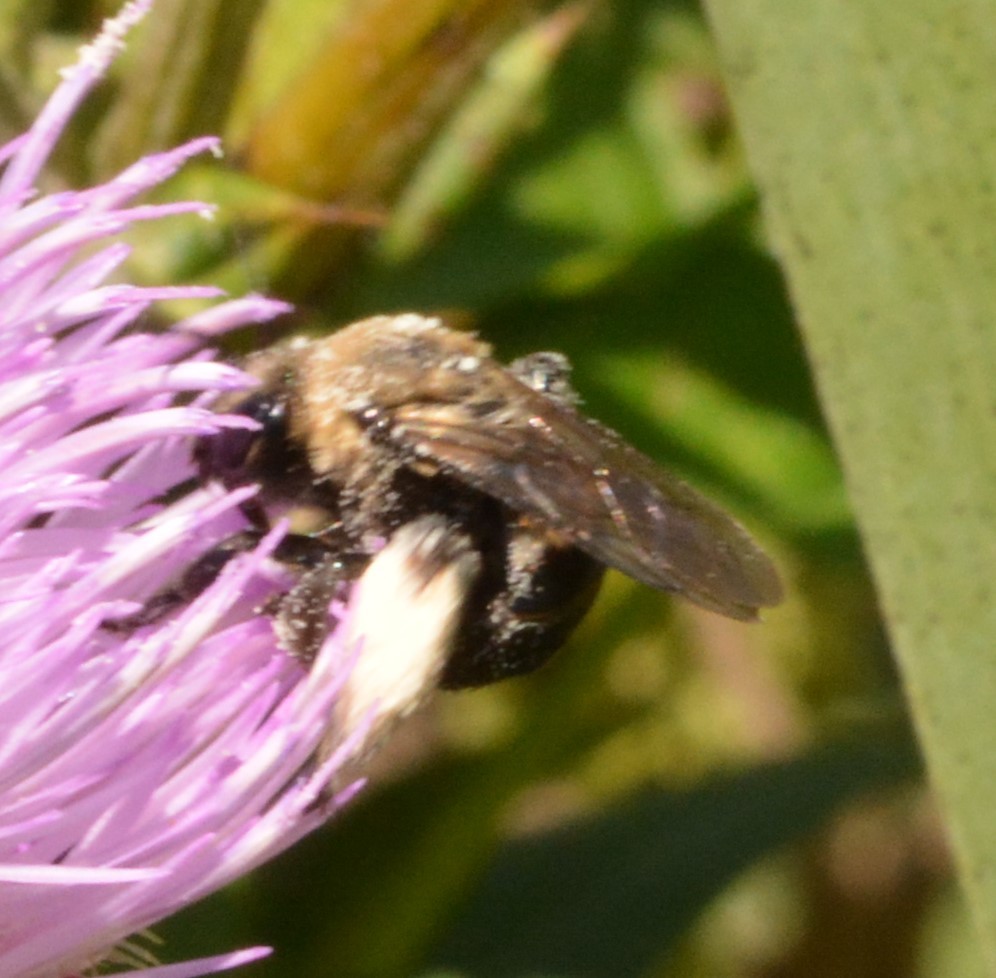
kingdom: Animalia
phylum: Arthropoda
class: Insecta
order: Hymenoptera
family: Apidae
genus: Melissodes
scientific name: Melissodes desponsus
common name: Thistle long-horned bee
